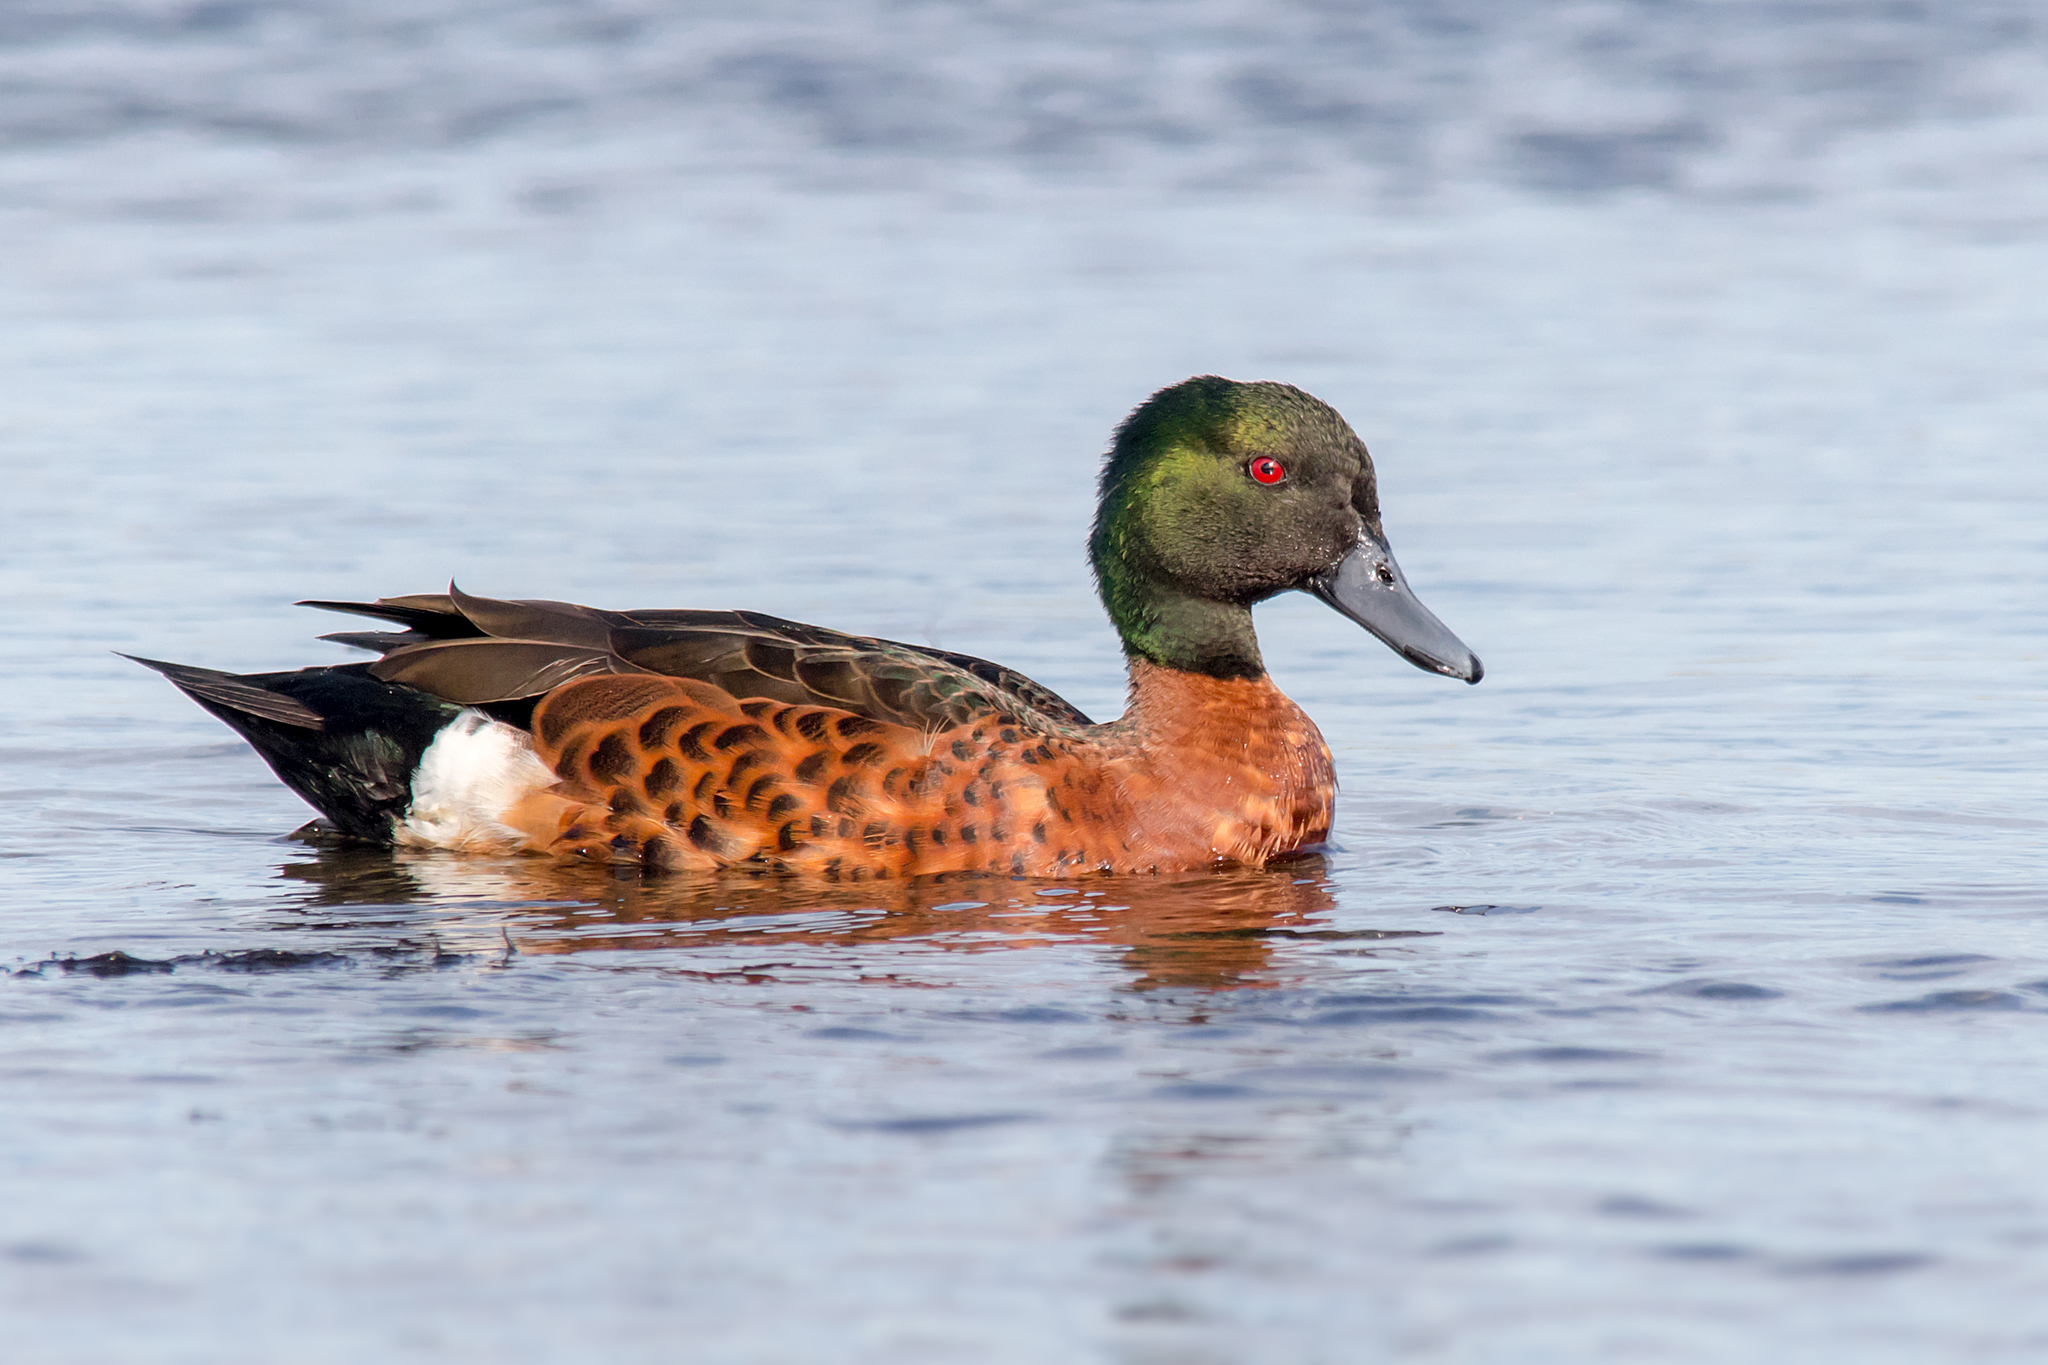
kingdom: Animalia
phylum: Chordata
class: Aves
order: Anseriformes
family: Anatidae
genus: Anas
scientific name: Anas castanea
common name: Chestnut teal
